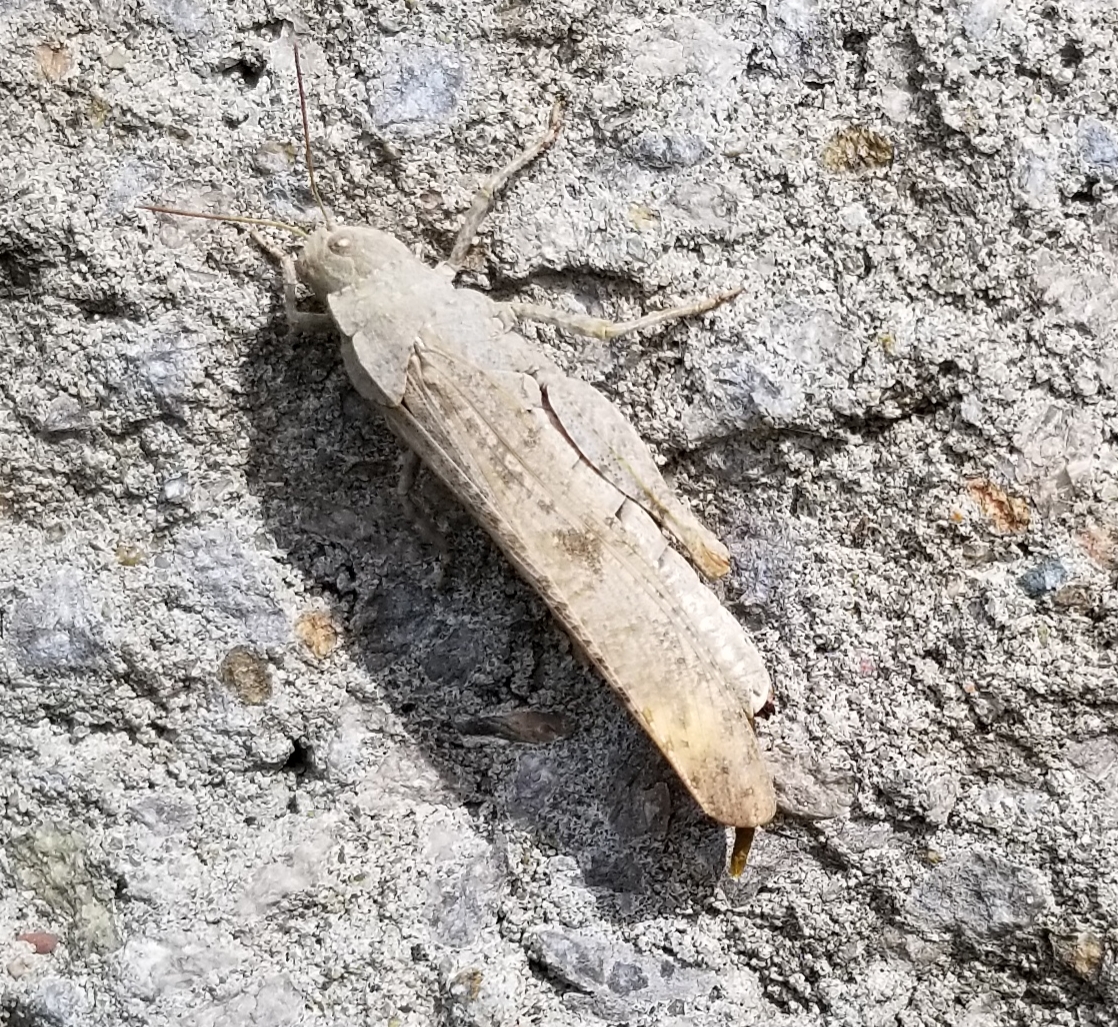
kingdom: Animalia
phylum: Arthropoda
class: Insecta
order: Orthoptera
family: Acrididae
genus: Dissosteira
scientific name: Dissosteira carolina
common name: Carolina grasshopper
